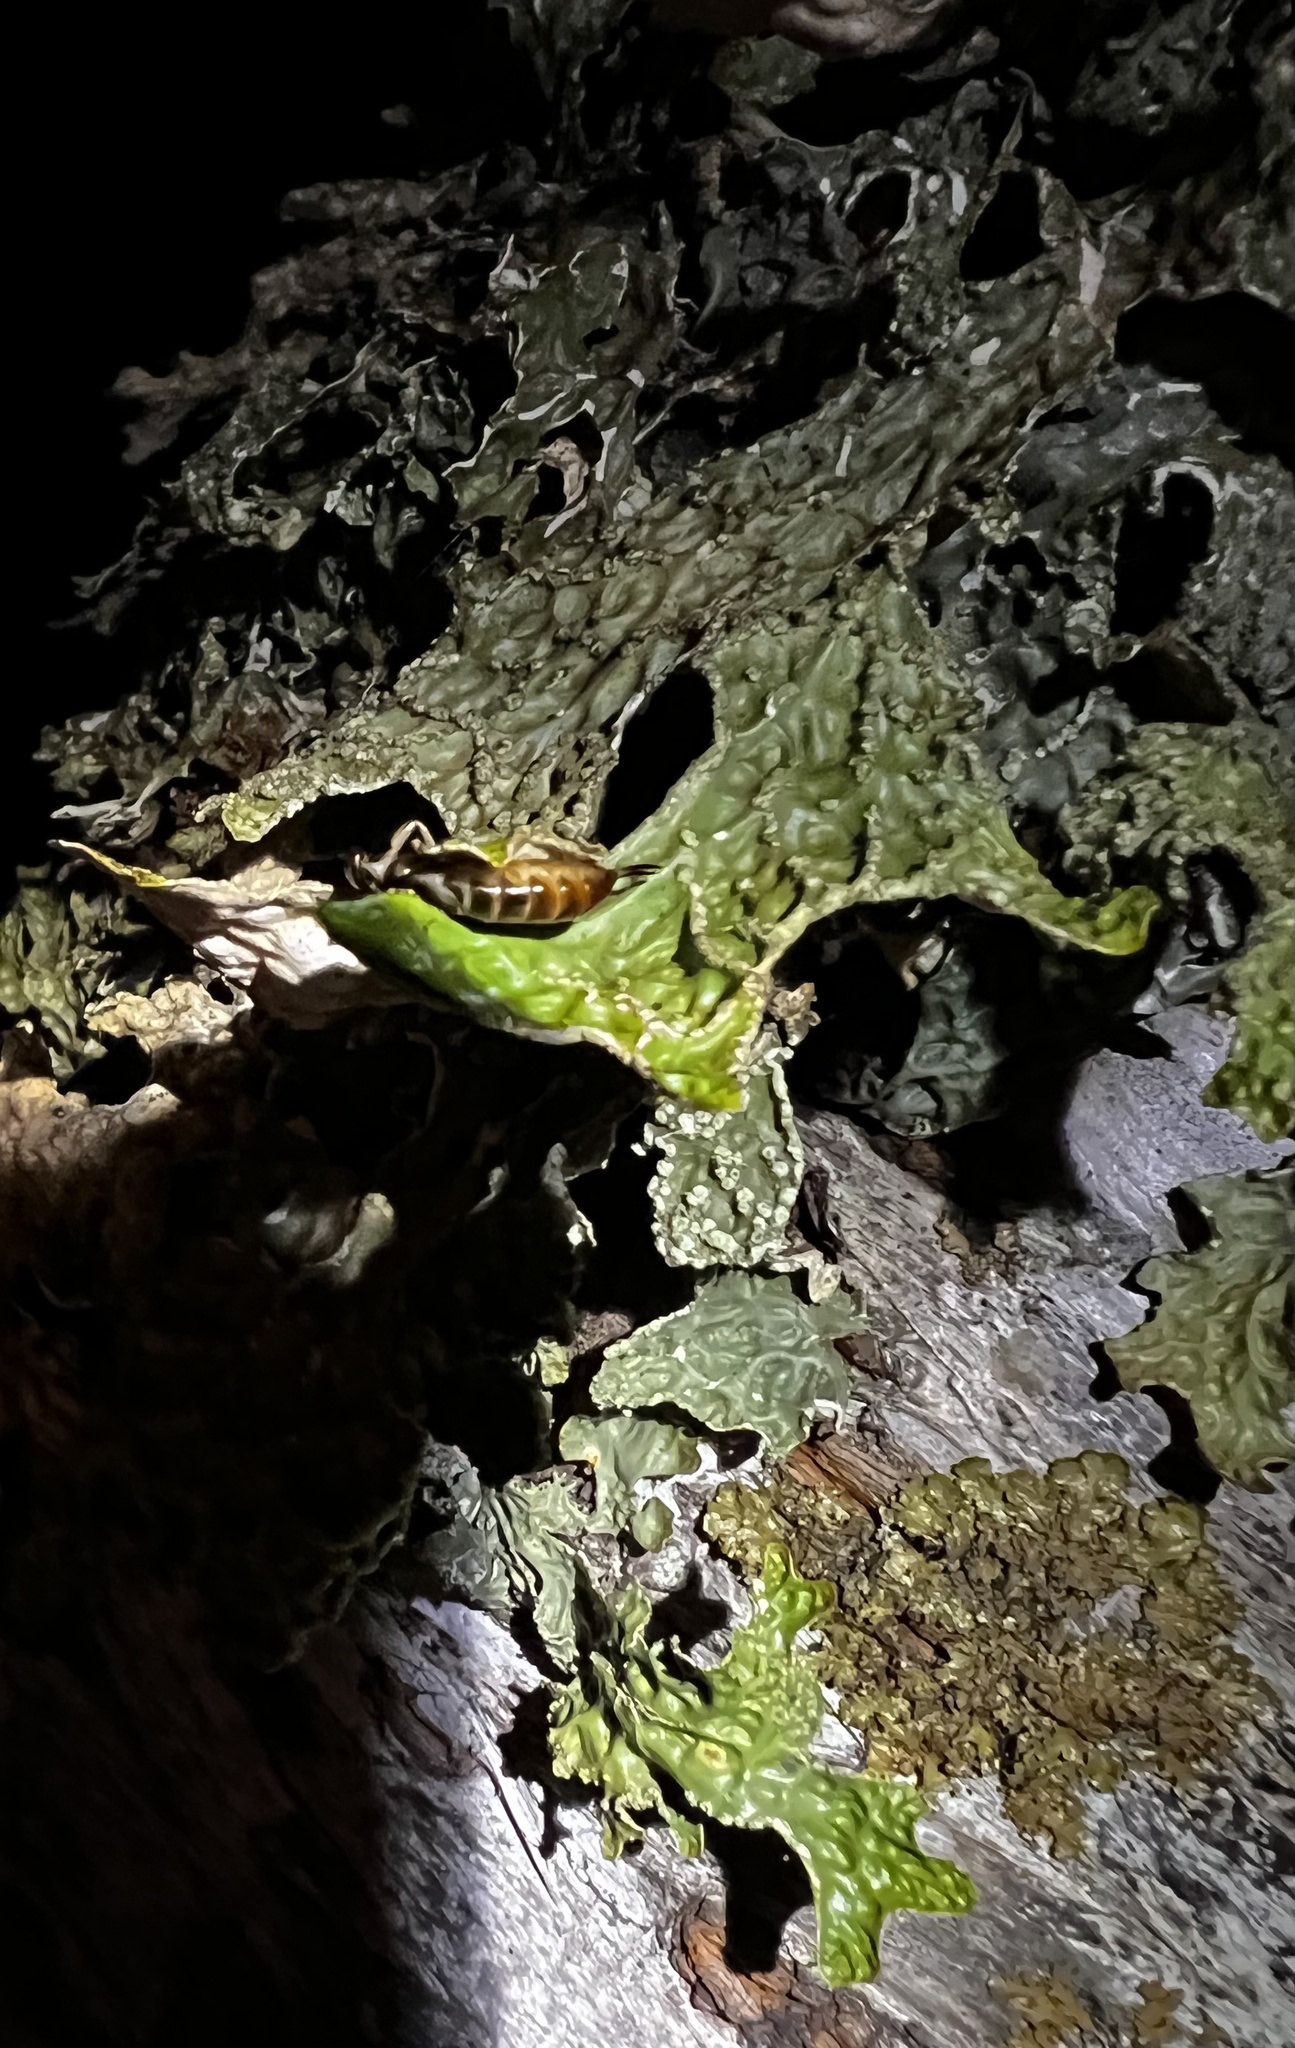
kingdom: Animalia
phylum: Arthropoda
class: Insecta
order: Dermaptera
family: Forficulidae
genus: Forficula
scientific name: Forficula dentata
